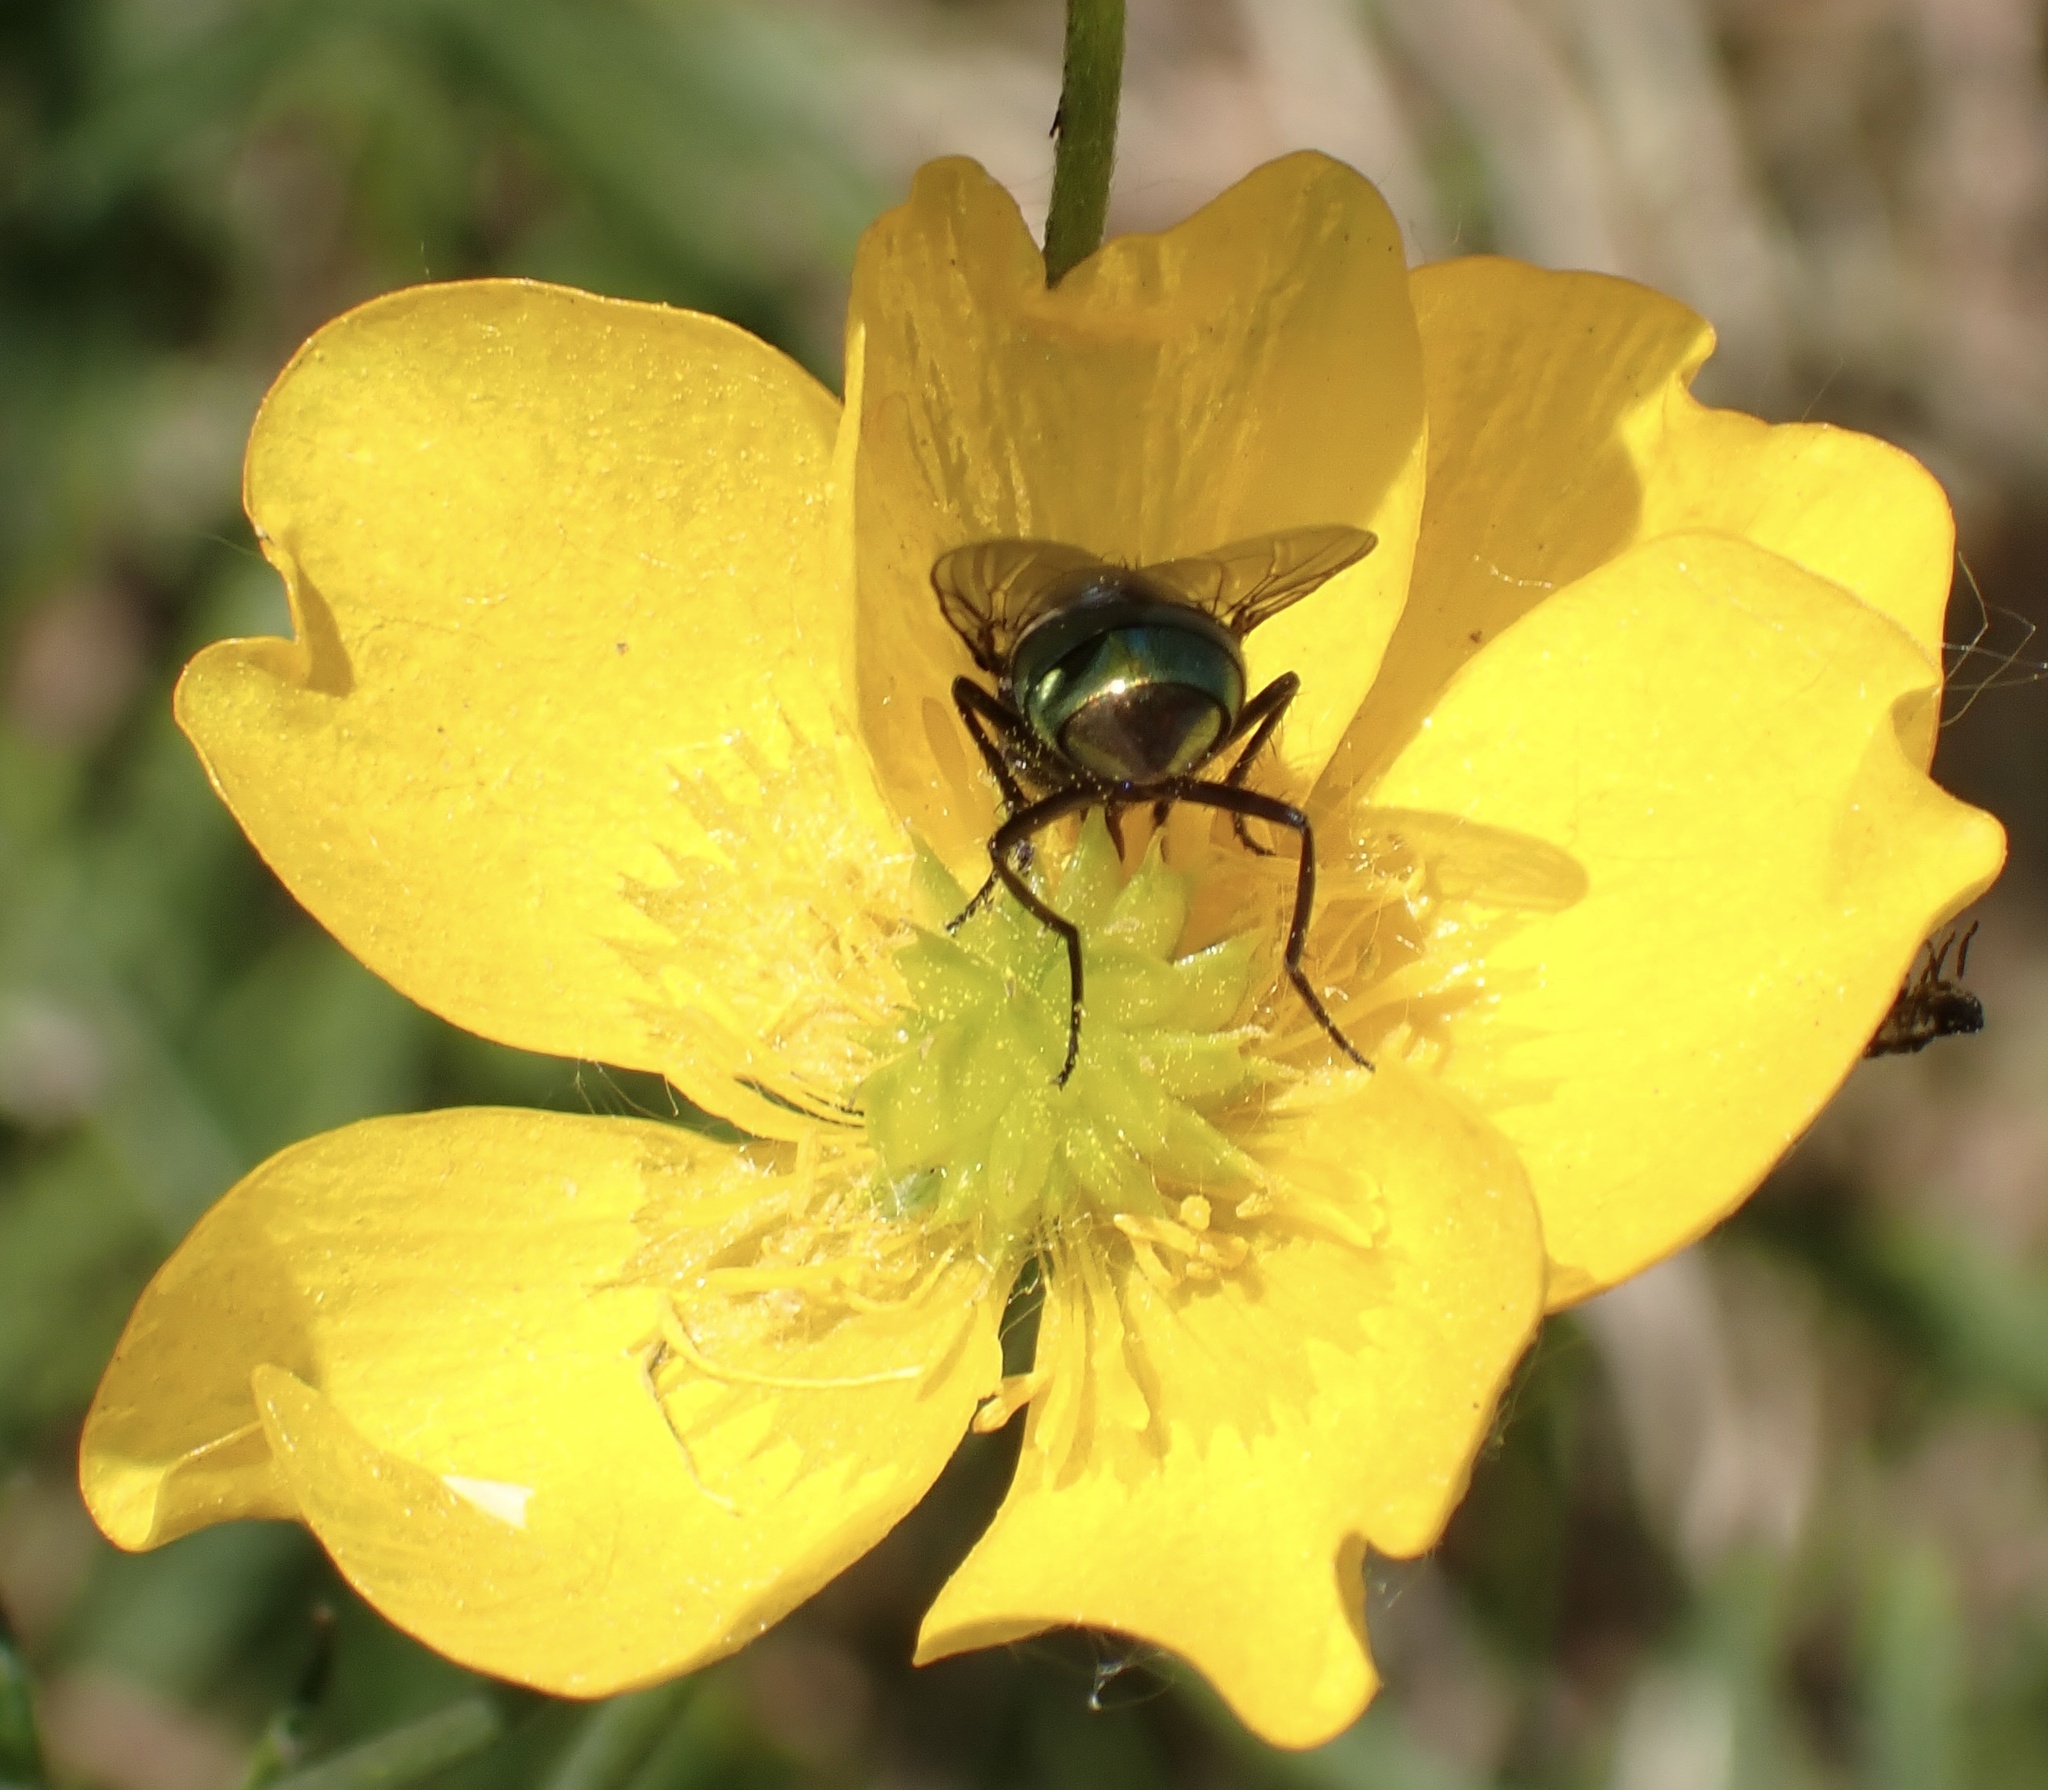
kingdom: Animalia
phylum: Arthropoda
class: Insecta
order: Diptera
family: Muscidae
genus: Neomyia
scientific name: Neomyia
